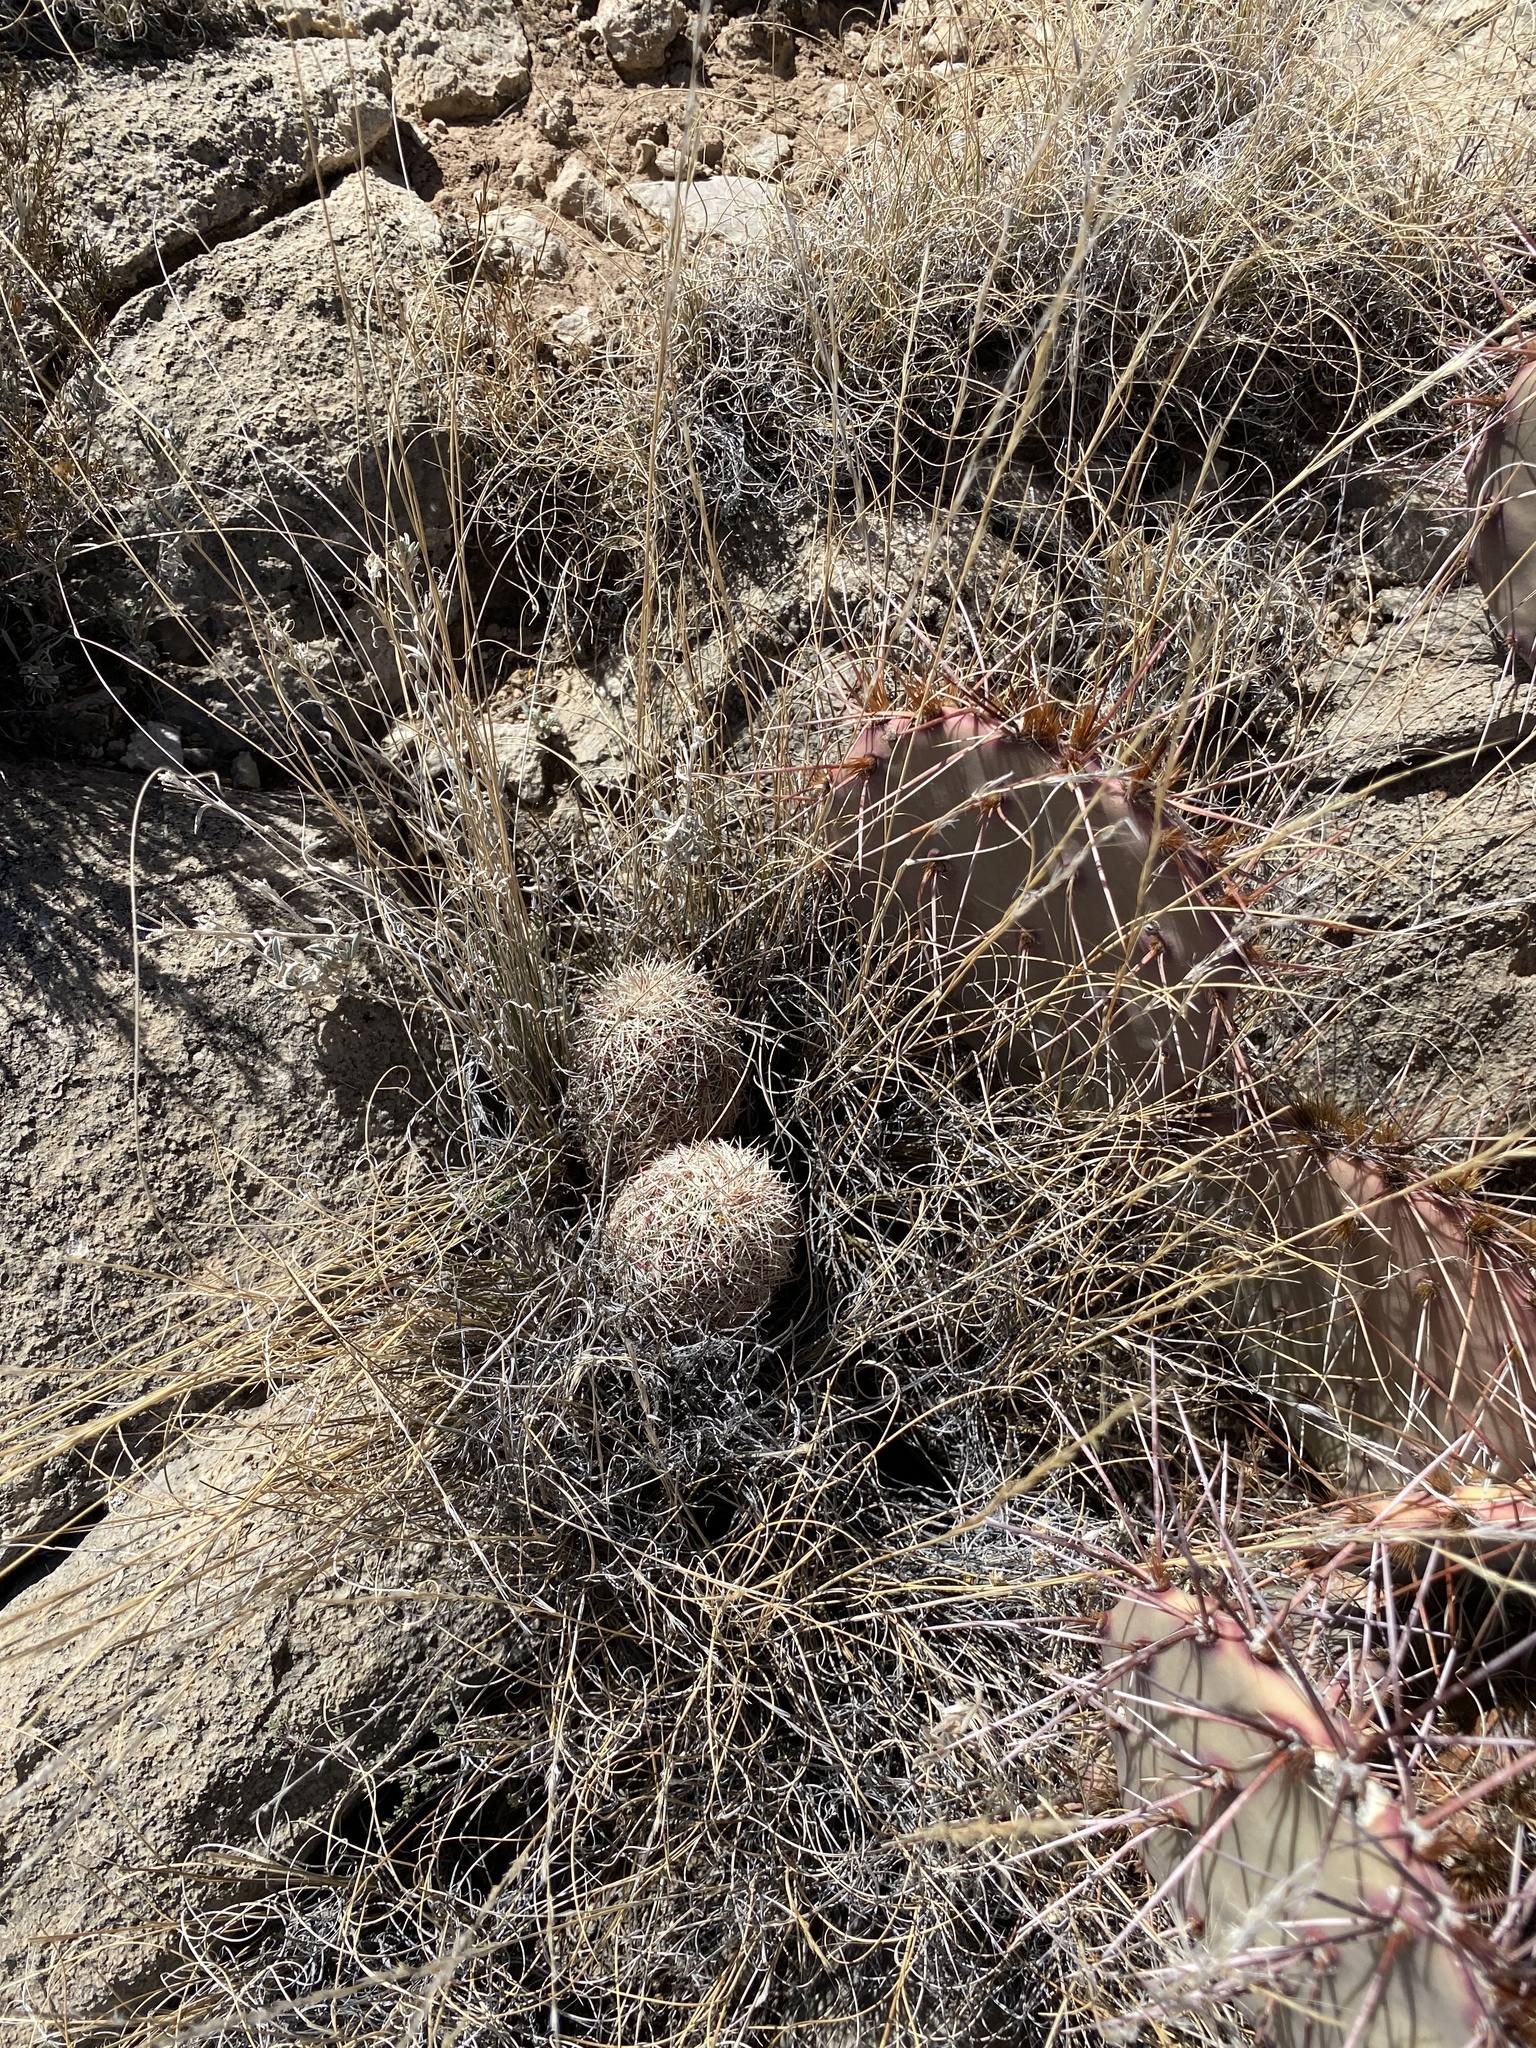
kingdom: Plantae
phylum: Tracheophyta
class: Magnoliopsida
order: Caryophyllales
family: Cactaceae
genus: Echinocereus
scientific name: Echinocereus viridiflorus
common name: Nylon hedgehog cactus
